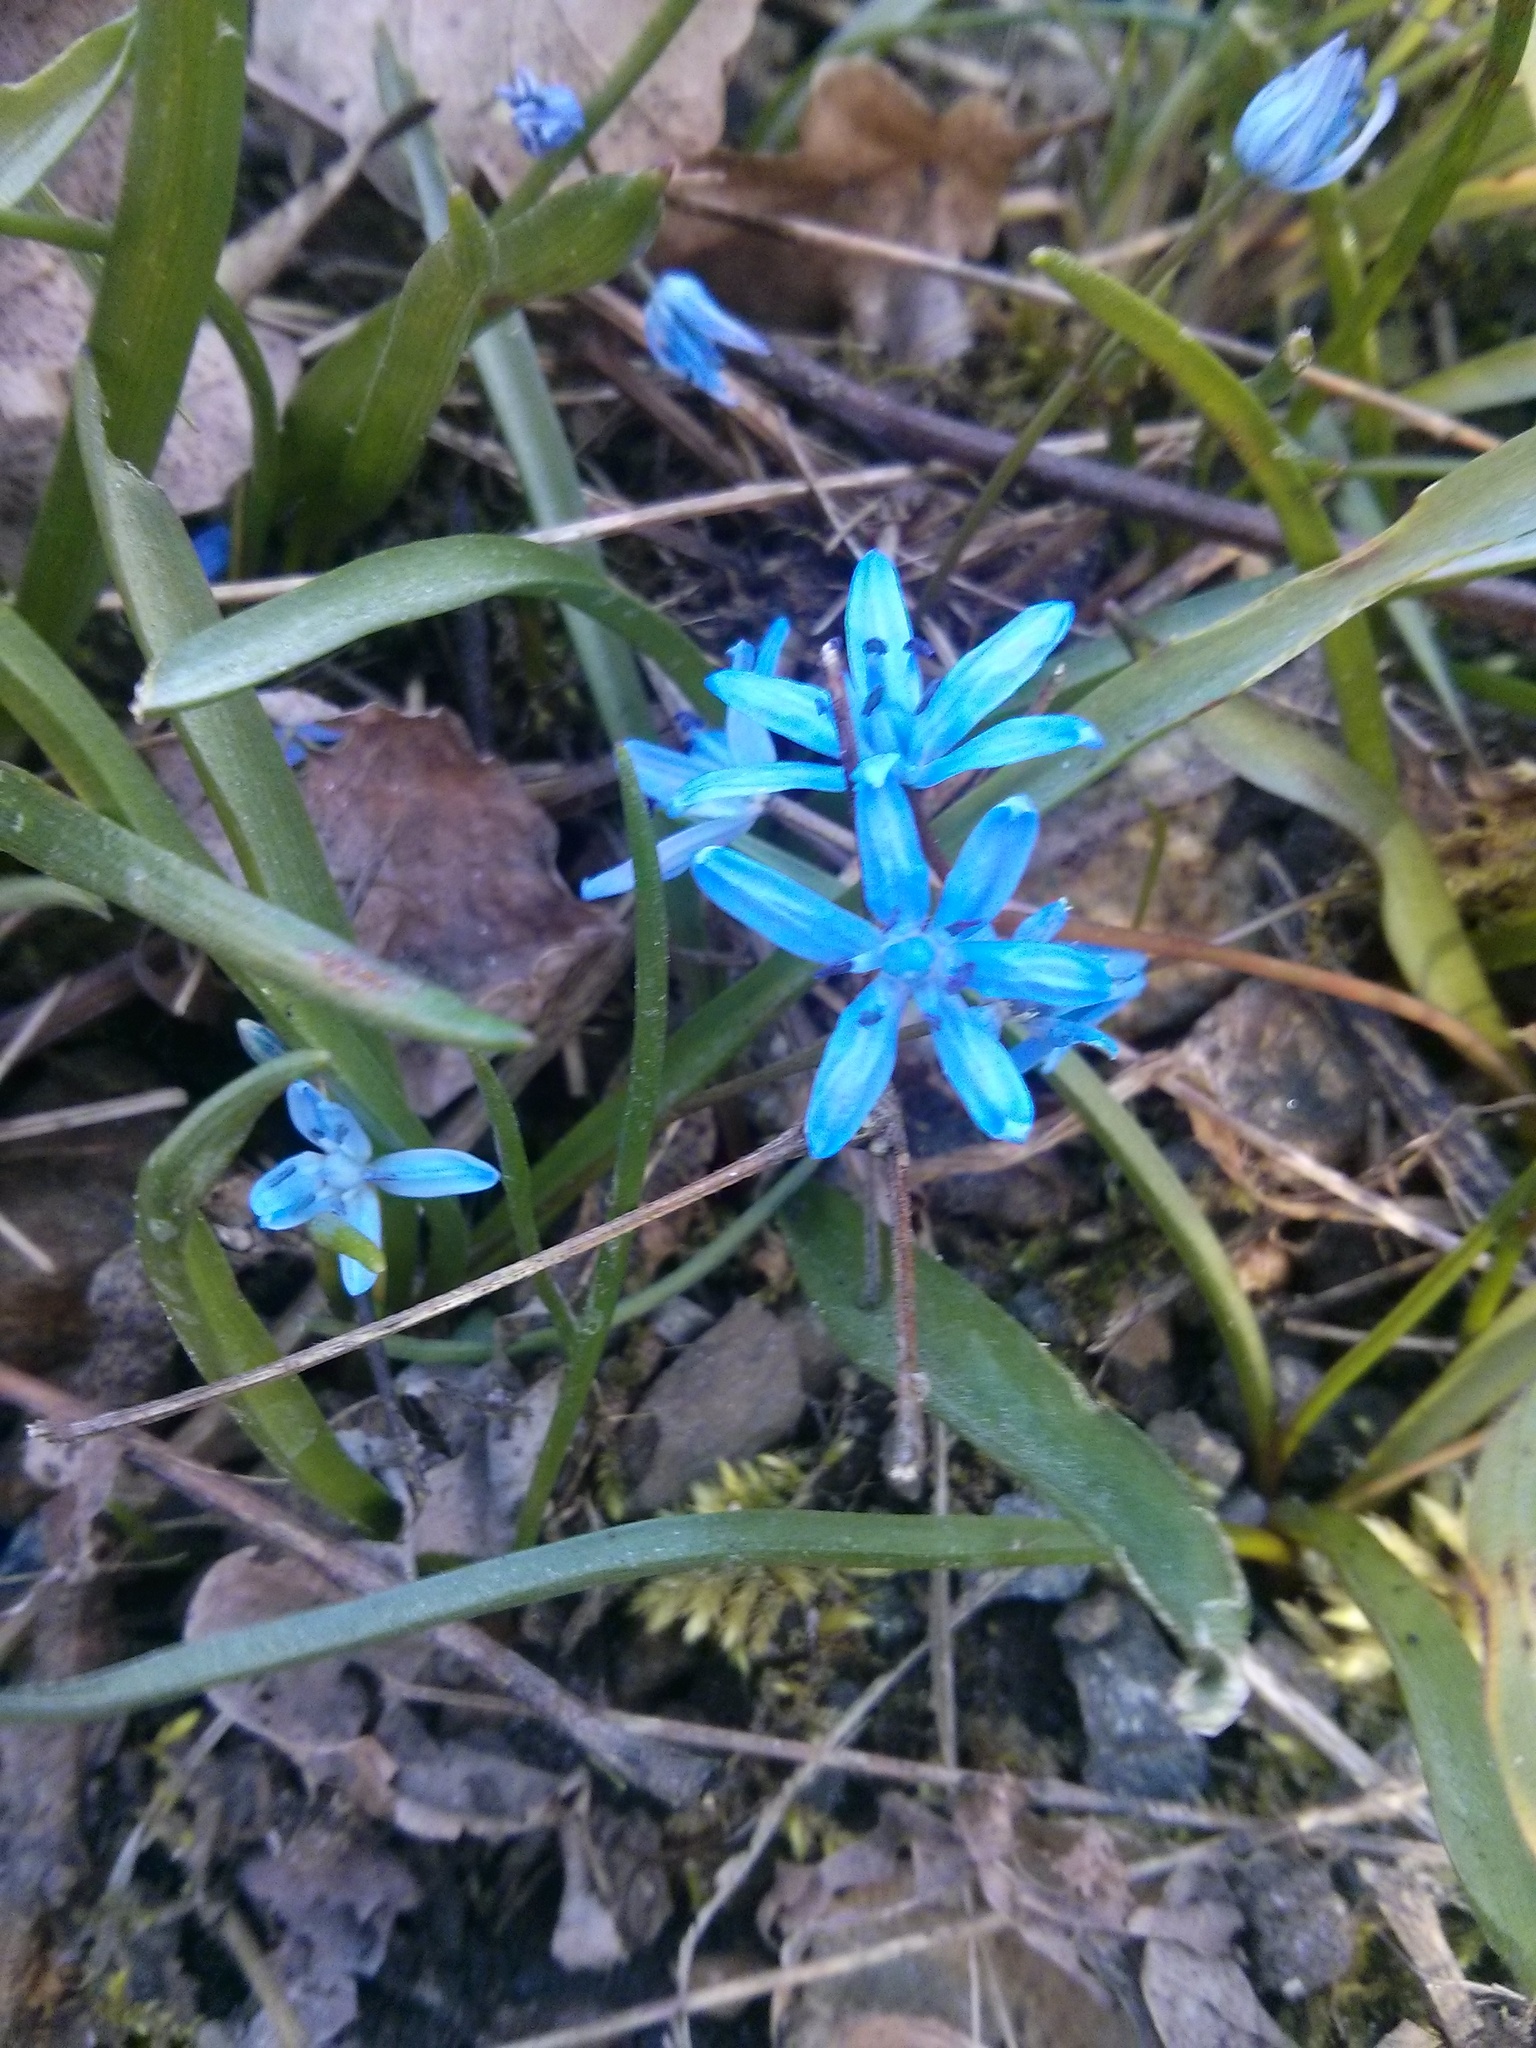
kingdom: Plantae
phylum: Tracheophyta
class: Liliopsida
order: Asparagales
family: Asparagaceae
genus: Scilla
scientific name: Scilla bifolia
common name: Alpine squill
